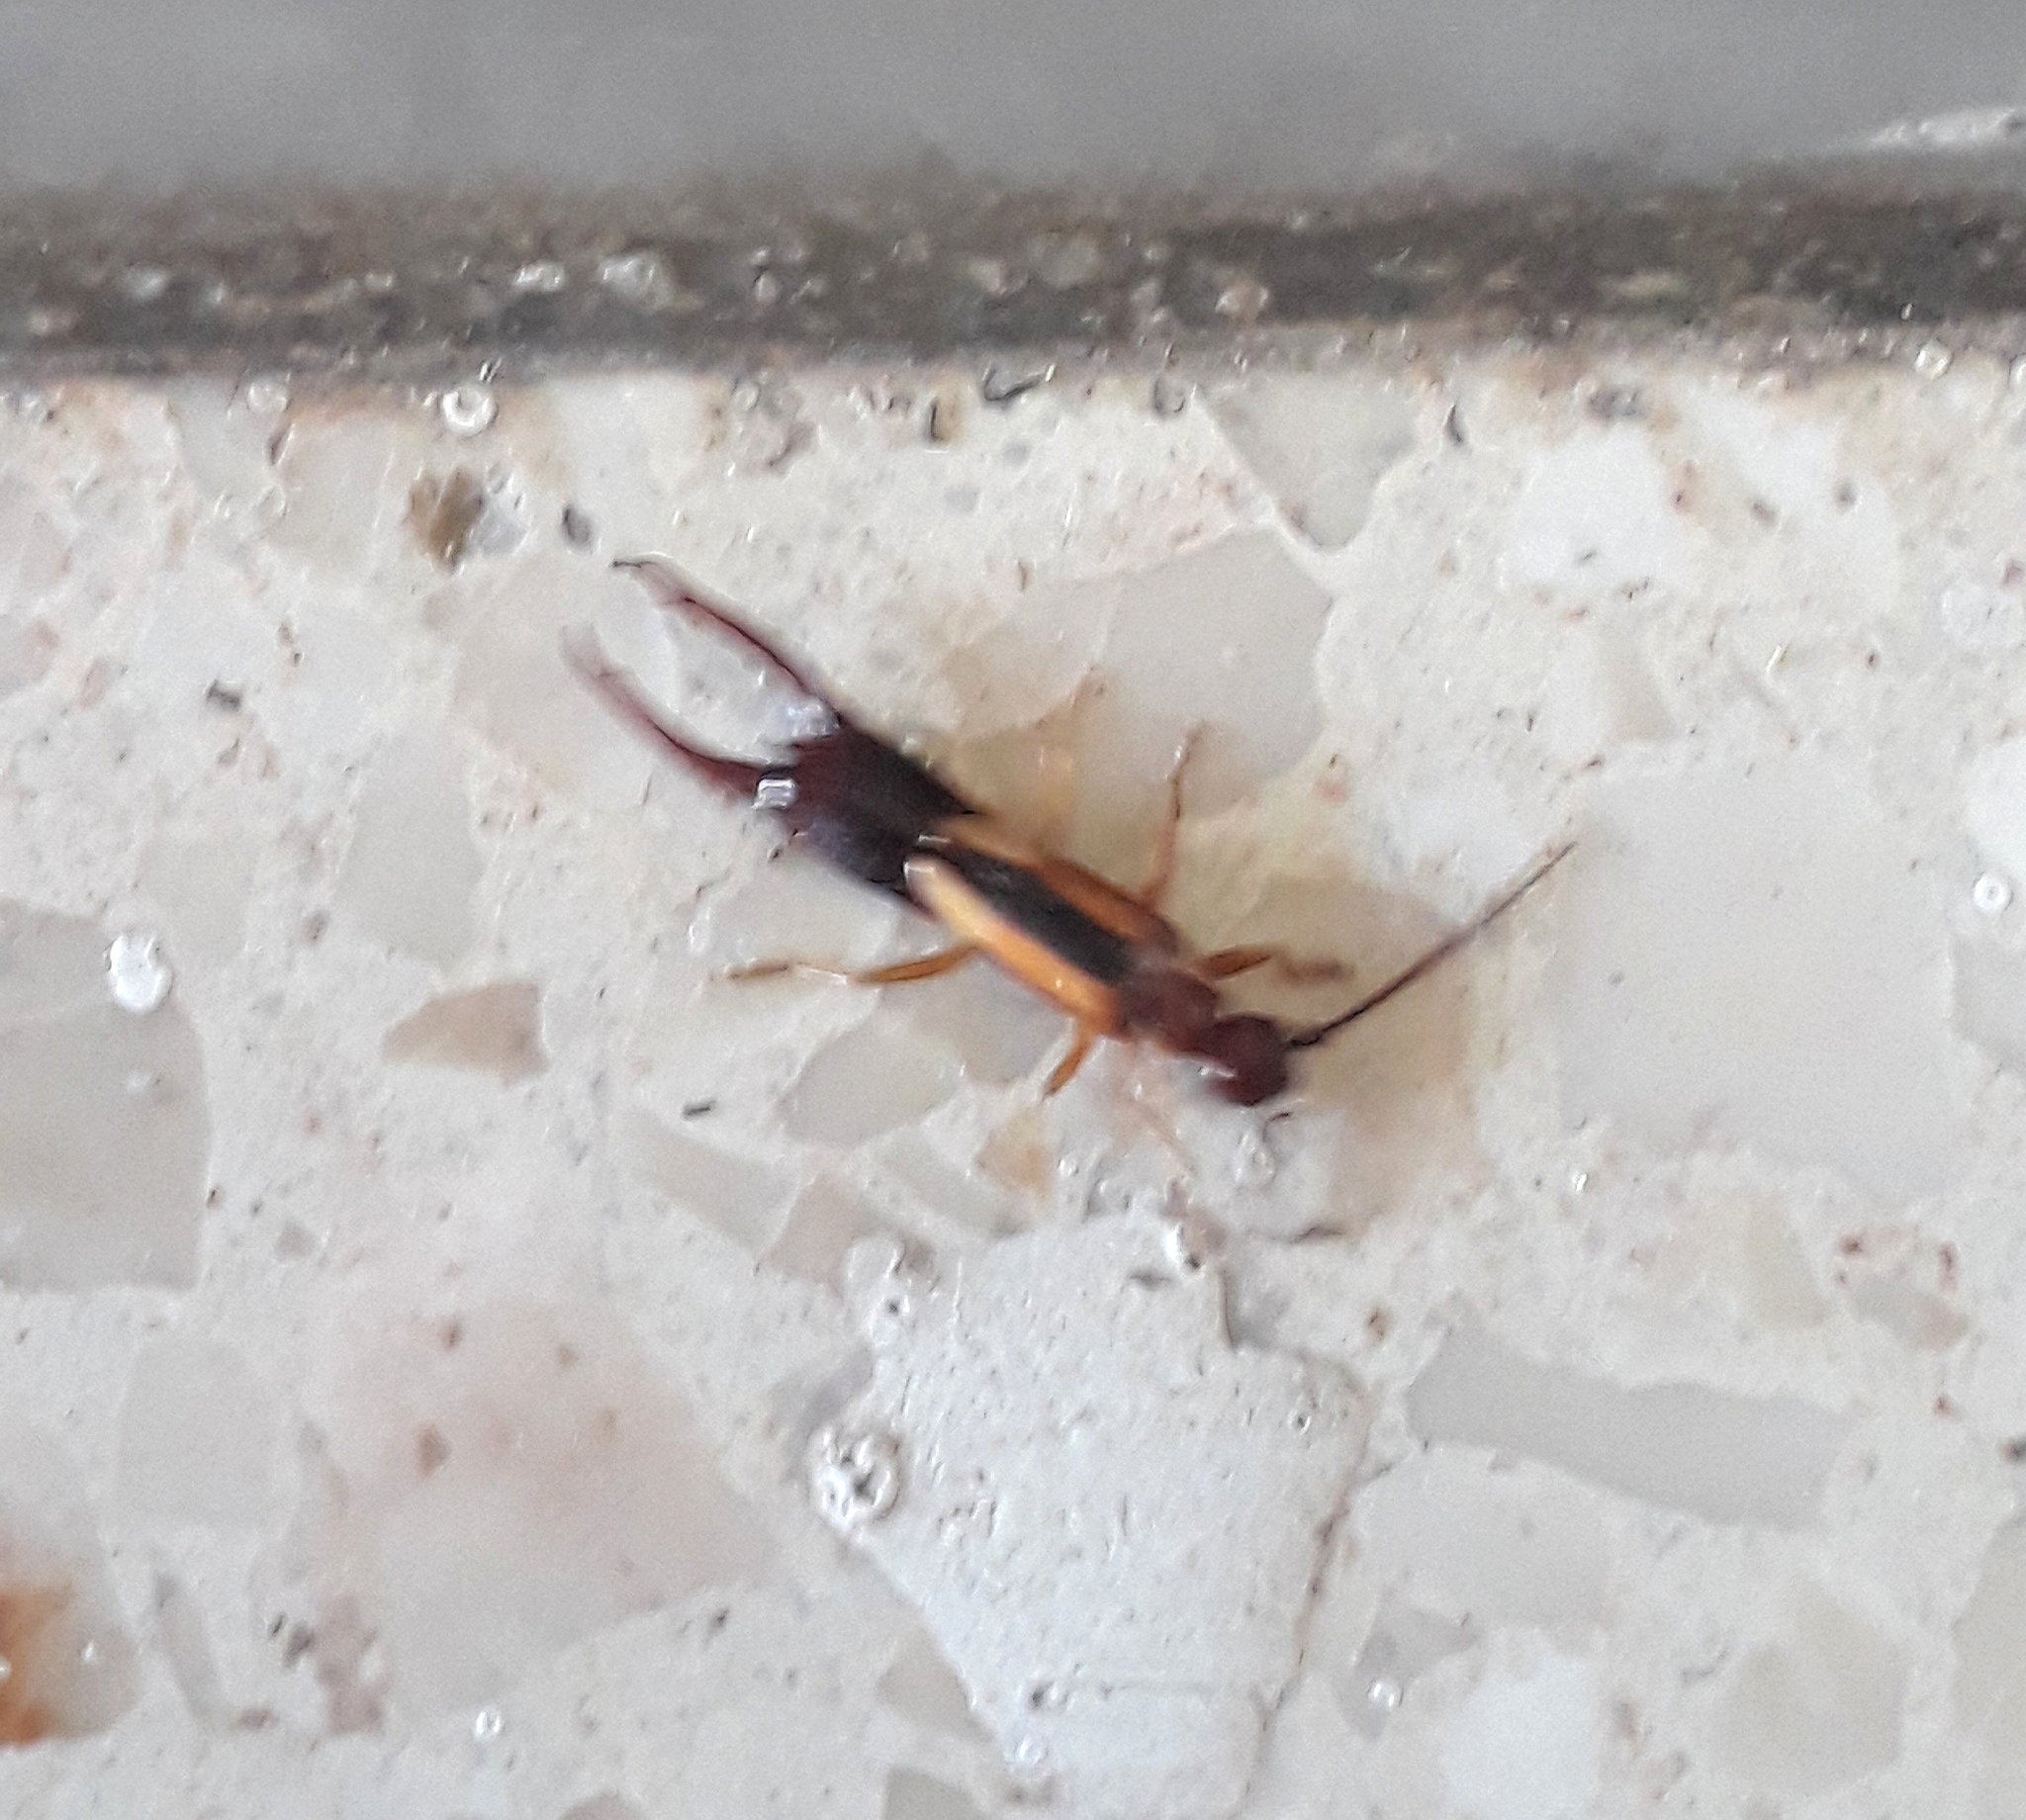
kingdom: Animalia
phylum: Arthropoda
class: Insecta
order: Dermaptera
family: Forficulidae
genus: Doru
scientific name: Doru lineare
